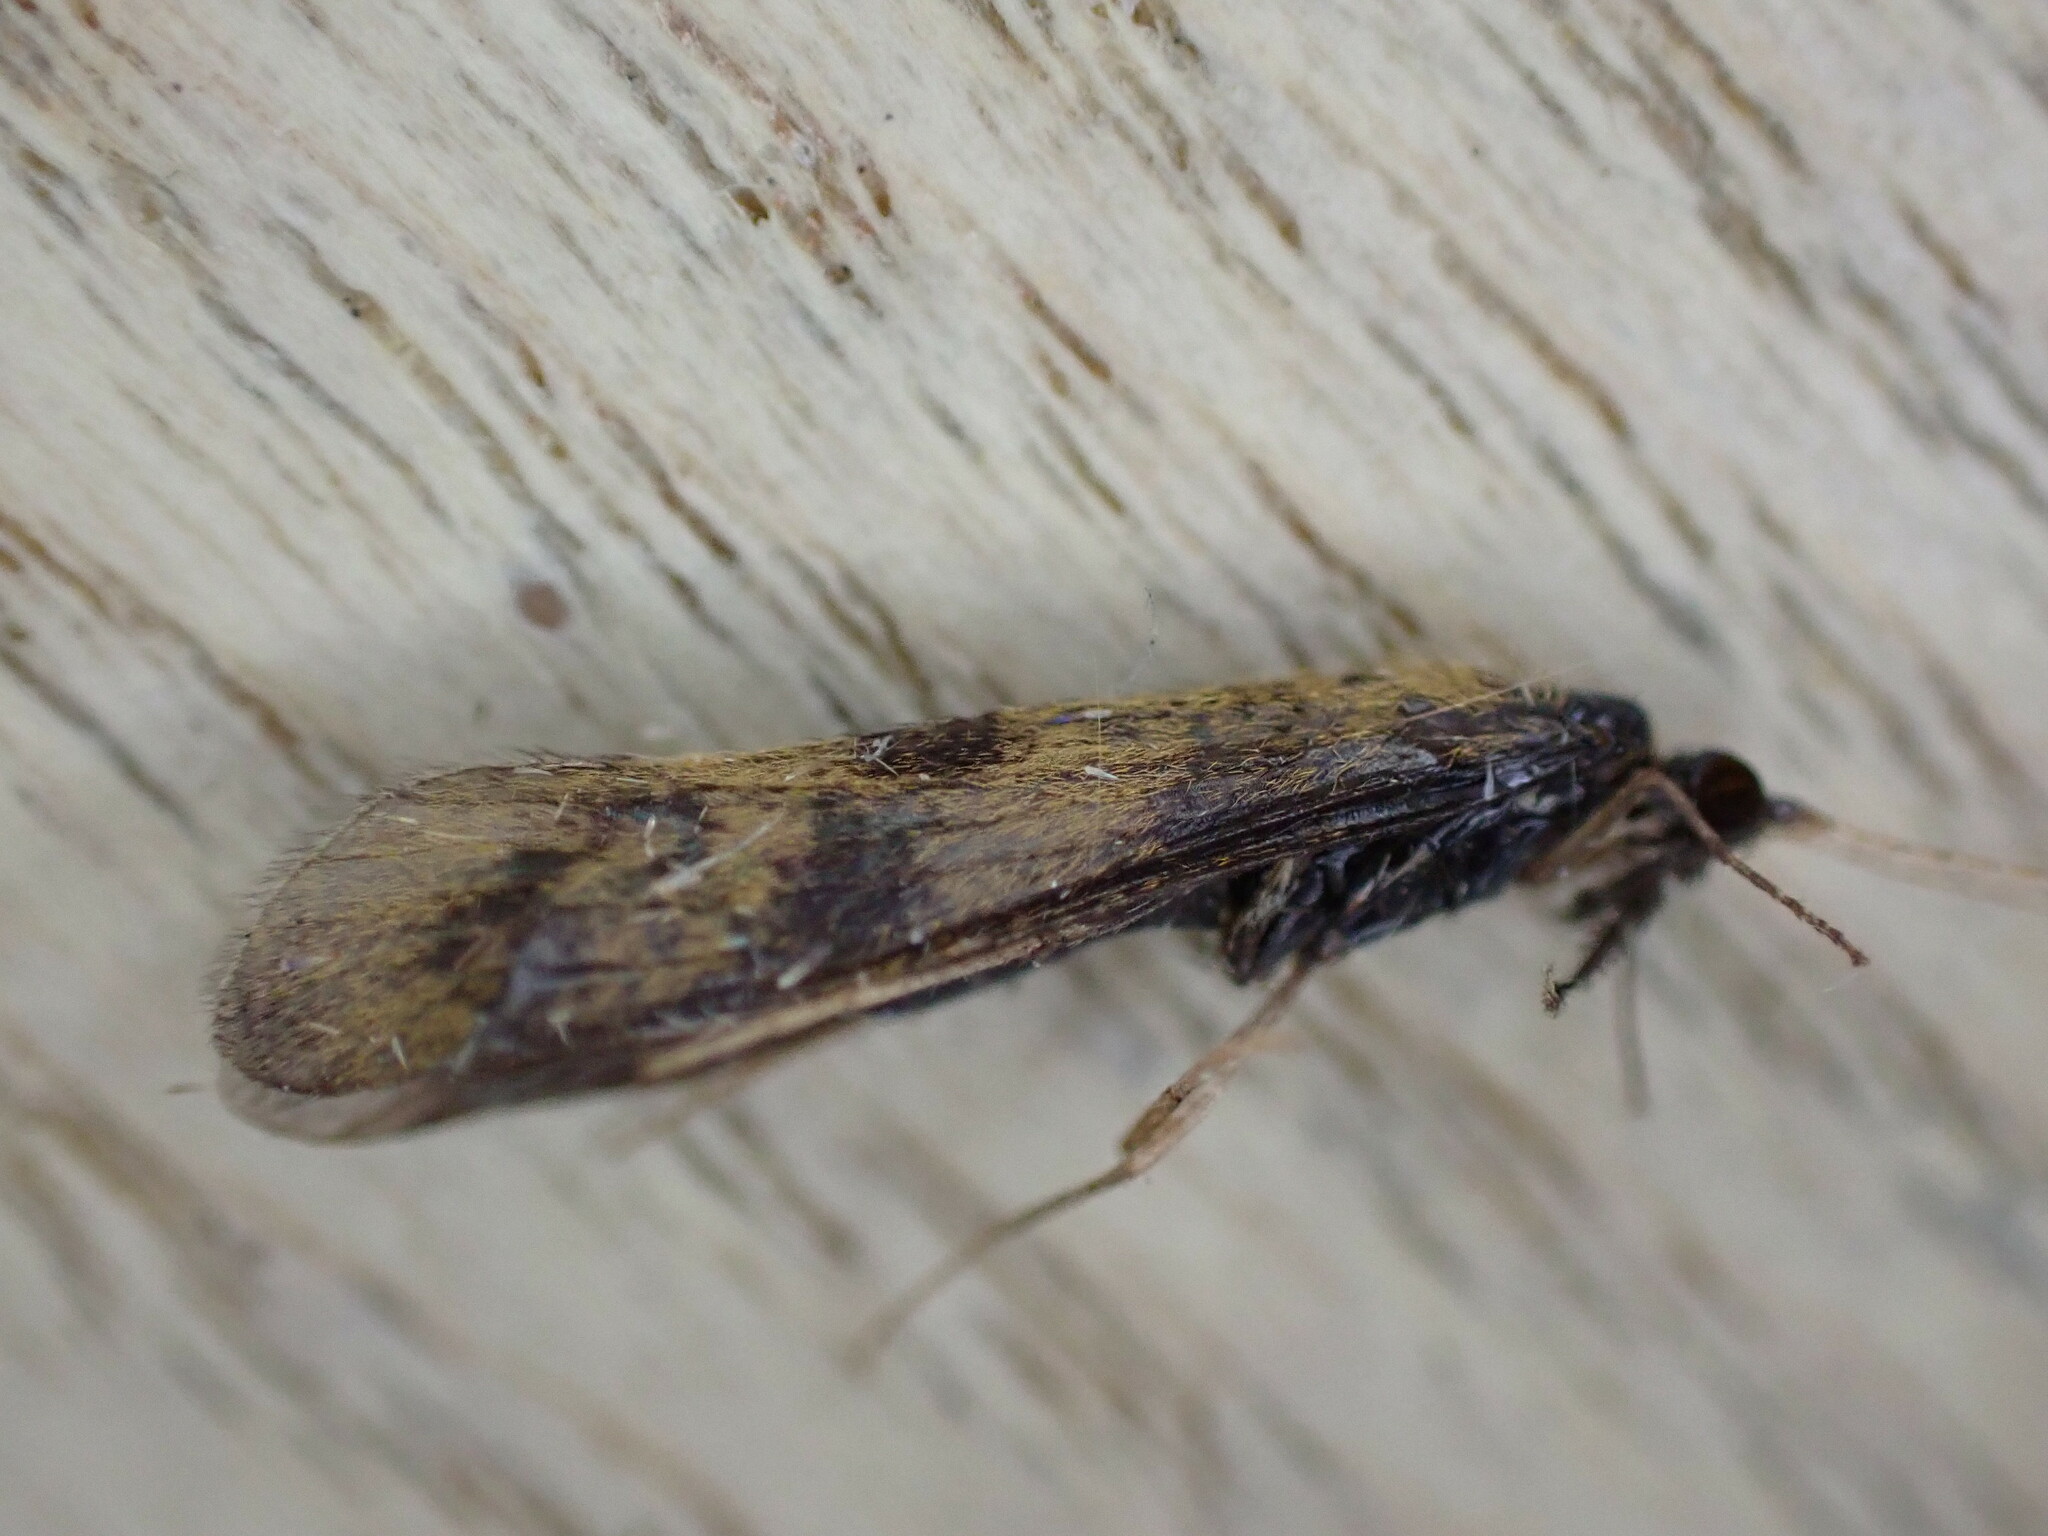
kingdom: Animalia
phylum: Arthropoda
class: Insecta
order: Trichoptera
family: Leptoceridae
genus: Mystacides
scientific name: Mystacides longicornis
